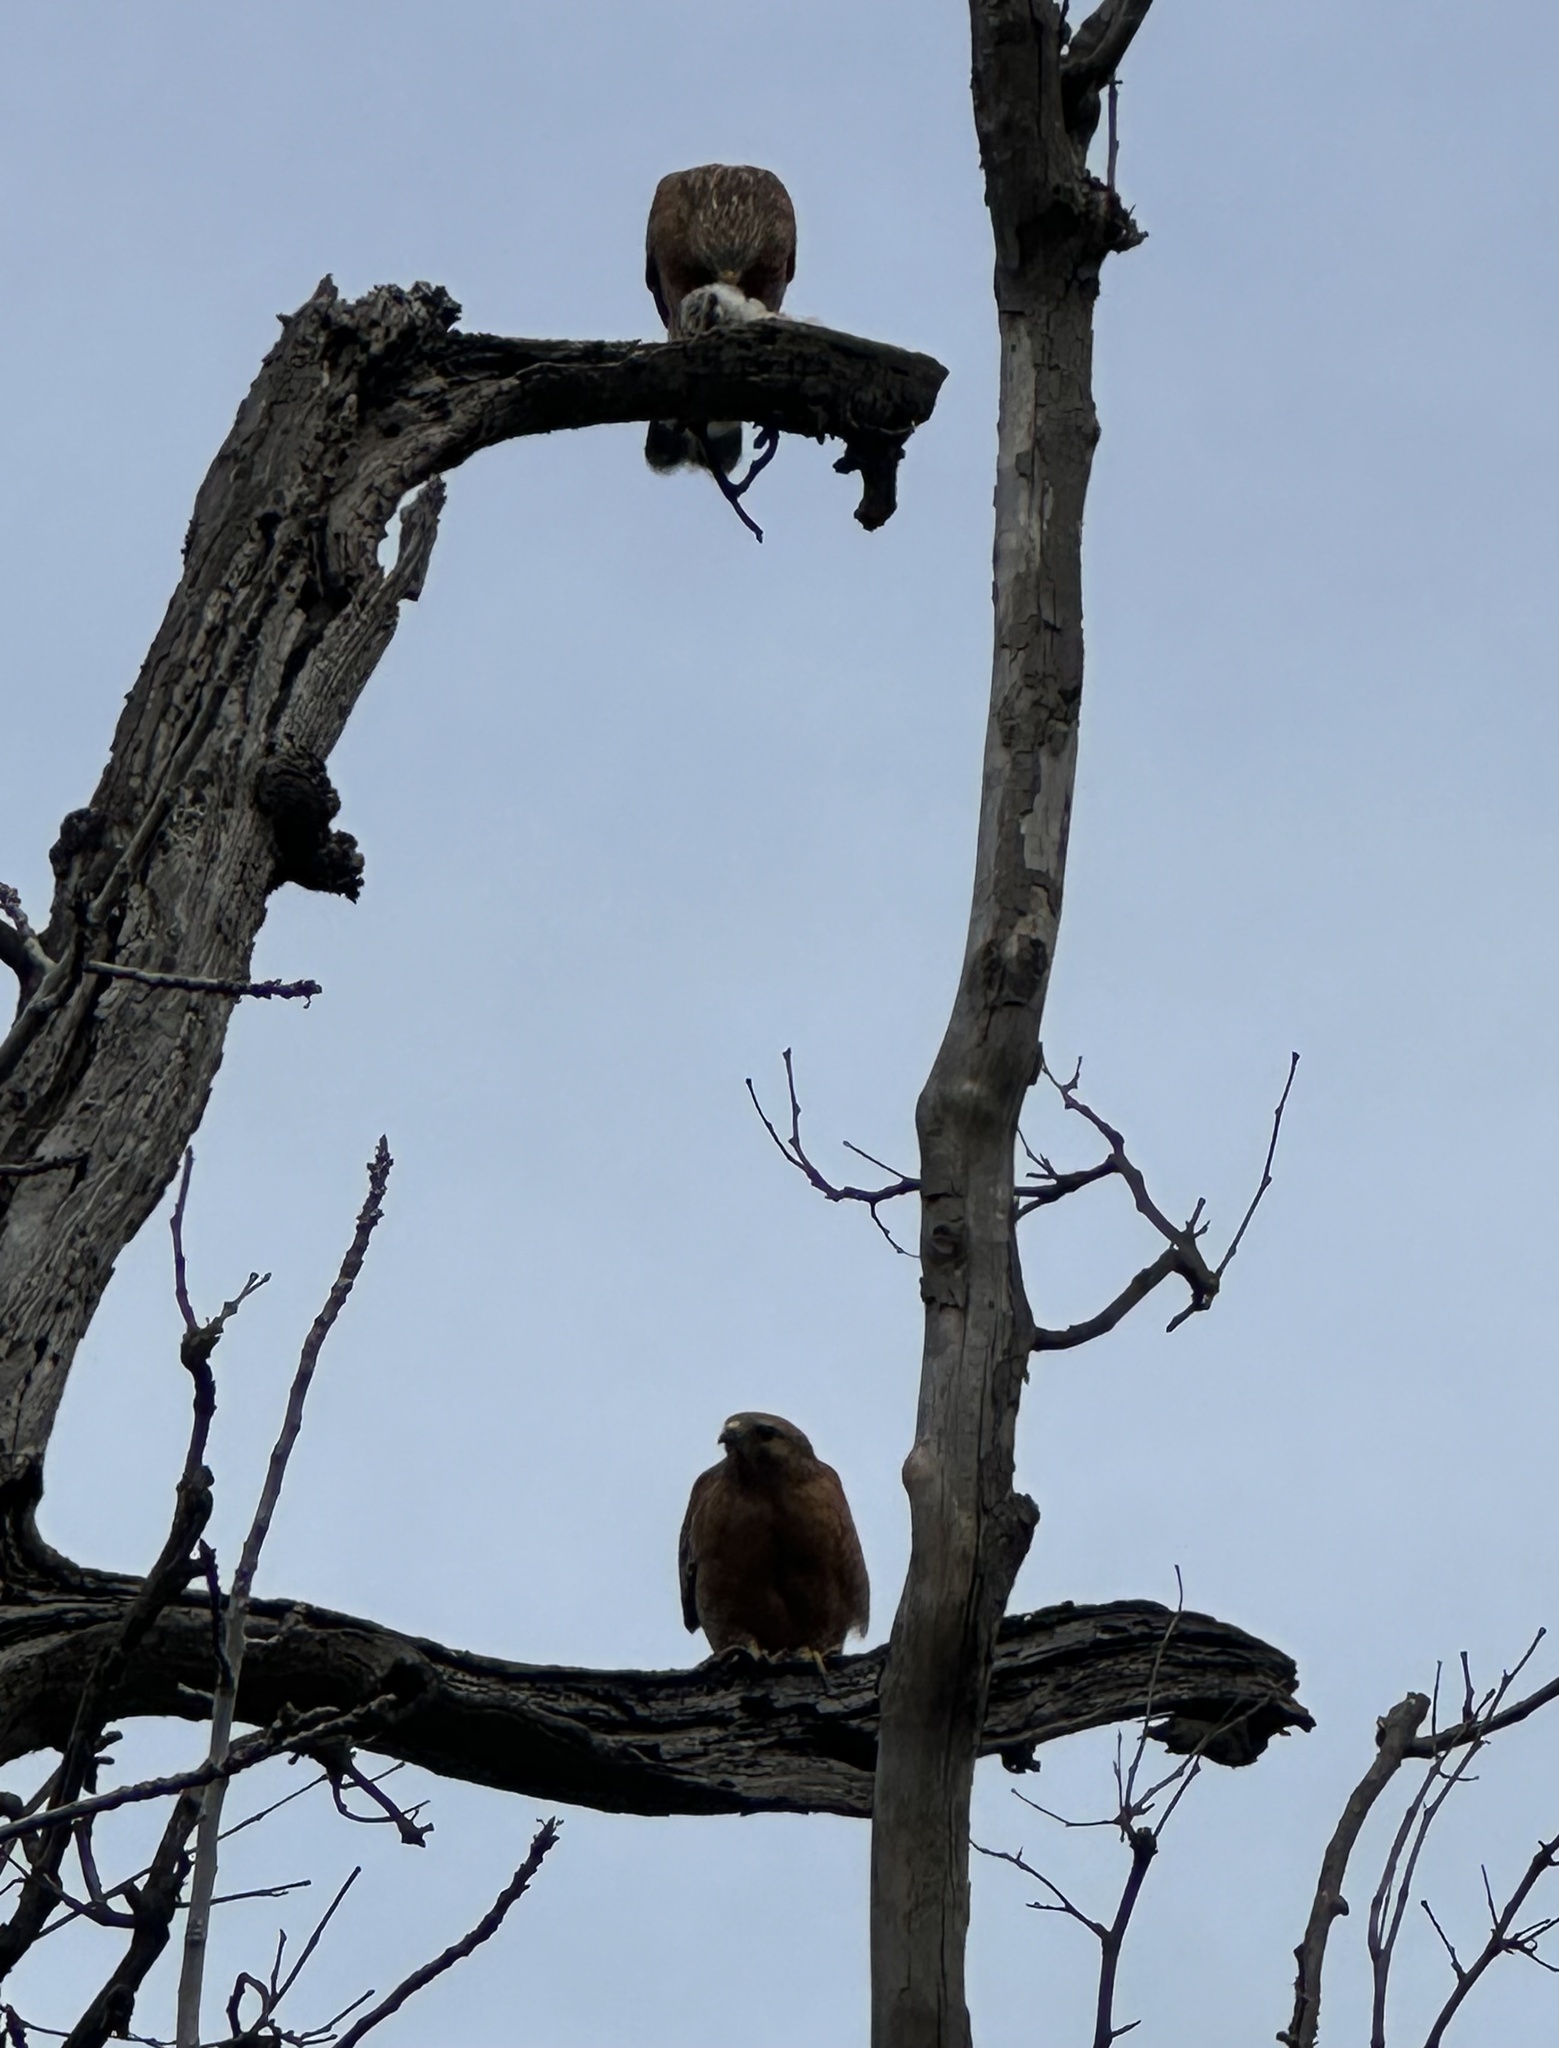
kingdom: Animalia
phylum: Chordata
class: Aves
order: Accipitriformes
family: Accipitridae
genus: Buteo
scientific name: Buteo lineatus
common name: Red-shouldered hawk
